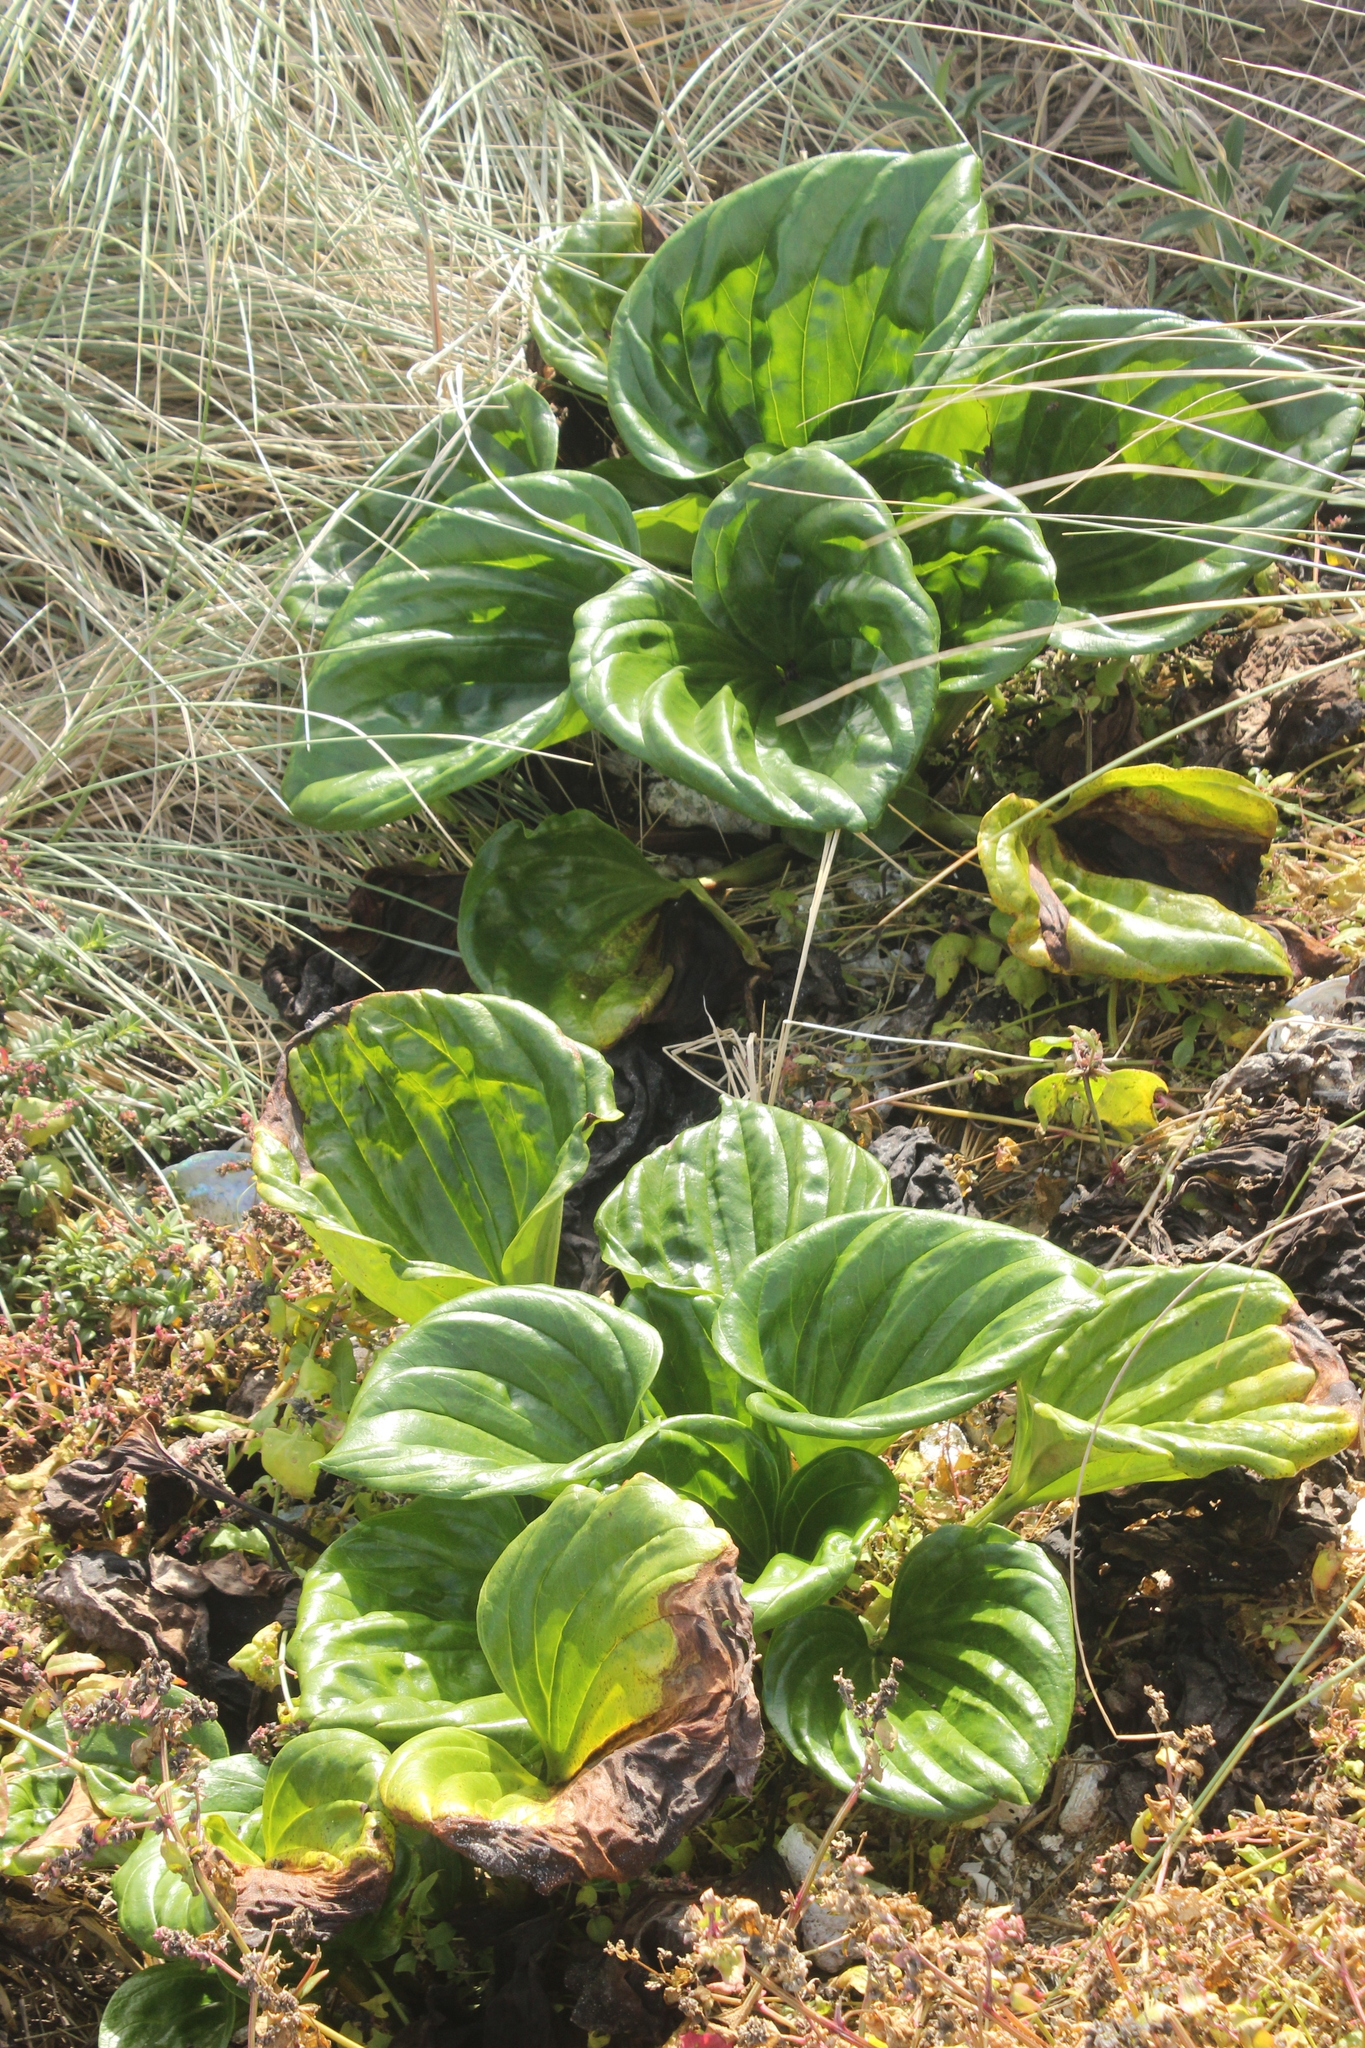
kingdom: Plantae
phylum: Tracheophyta
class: Magnoliopsida
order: Boraginales
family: Boraginaceae
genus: Myosotidium
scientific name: Myosotidium hortensia
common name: Giant forget-me-not
